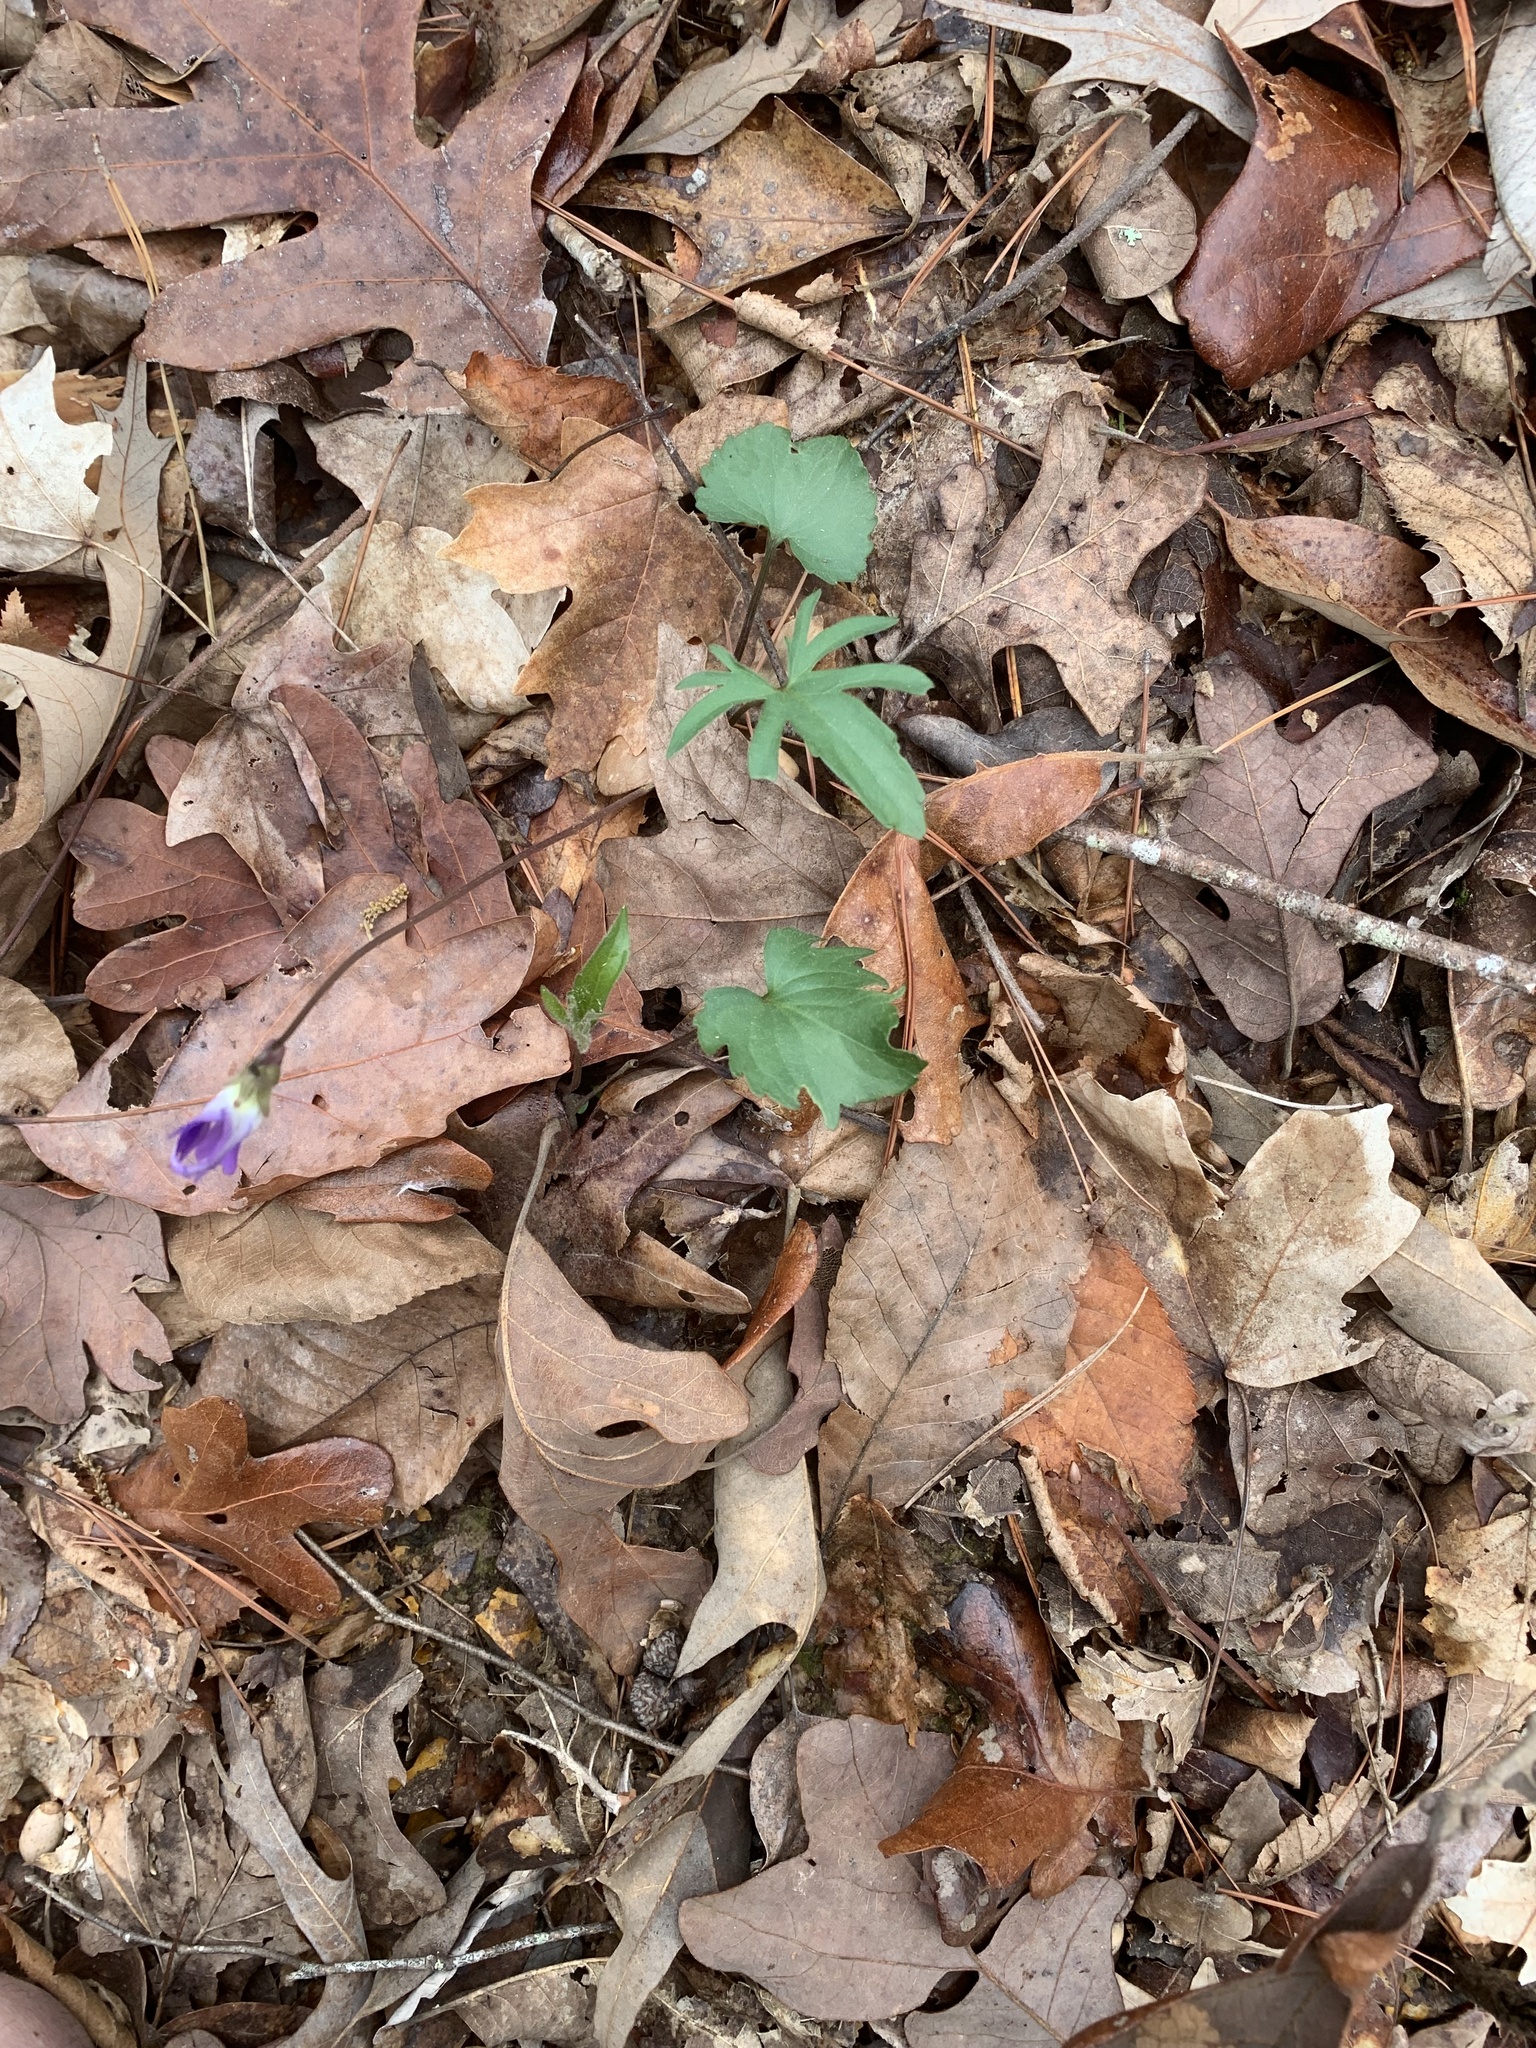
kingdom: Plantae
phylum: Tracheophyta
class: Magnoliopsida
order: Malpighiales
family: Violaceae
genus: Viola
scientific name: Viola palmata
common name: Early blue violet
